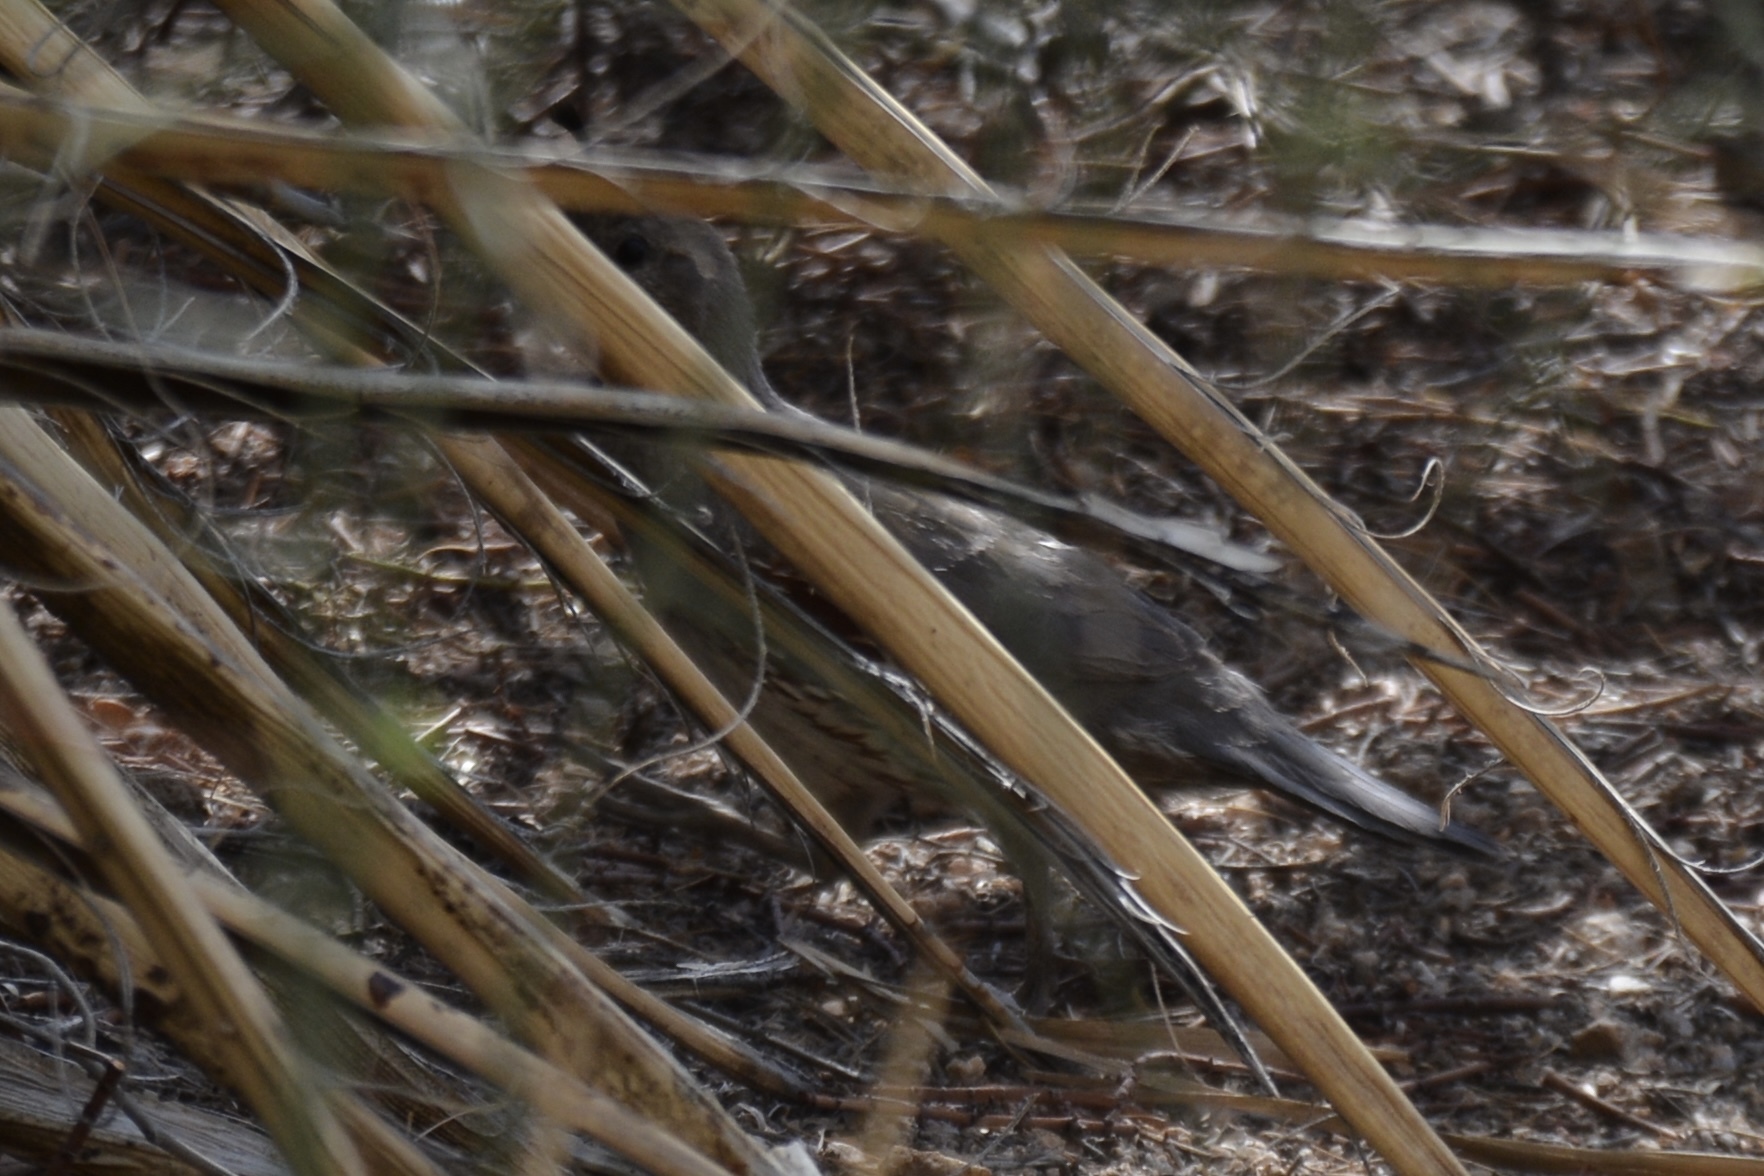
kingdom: Animalia
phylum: Chordata
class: Aves
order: Galliformes
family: Odontophoridae
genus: Callipepla
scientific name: Callipepla gambelii
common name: Gambel's quail
